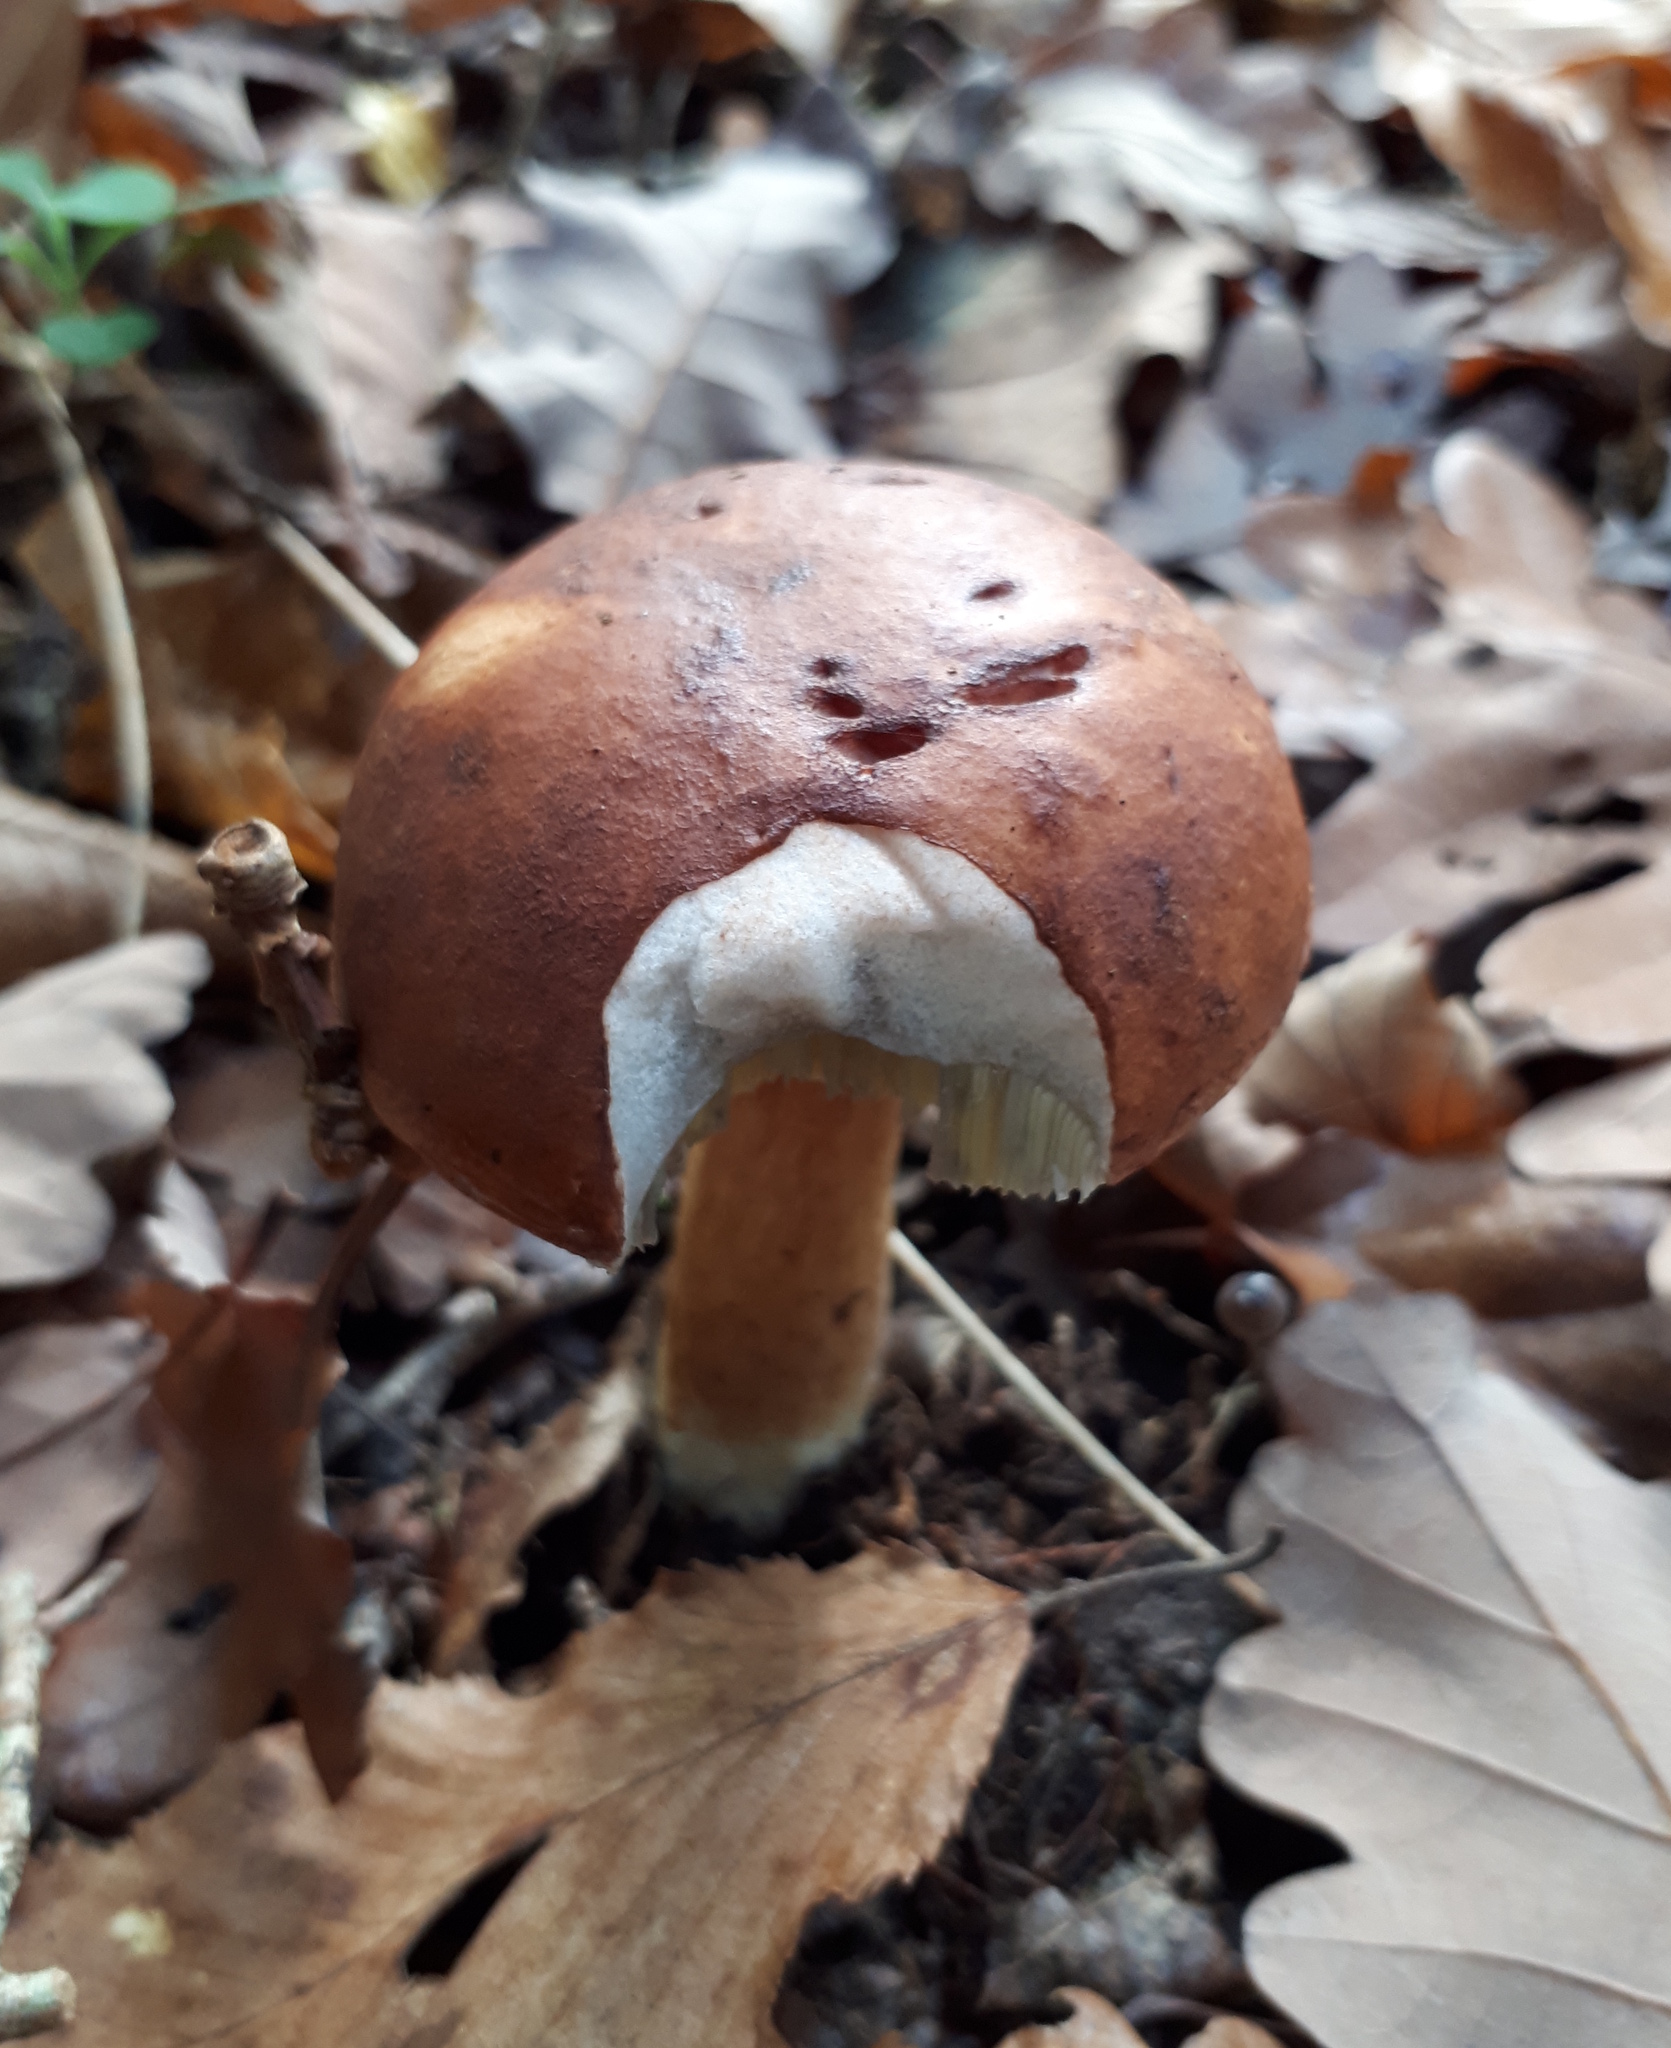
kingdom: Fungi
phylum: Basidiomycota
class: Agaricomycetes
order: Boletales
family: Boletaceae
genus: Imleria
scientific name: Imleria badia
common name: Bay bolete
